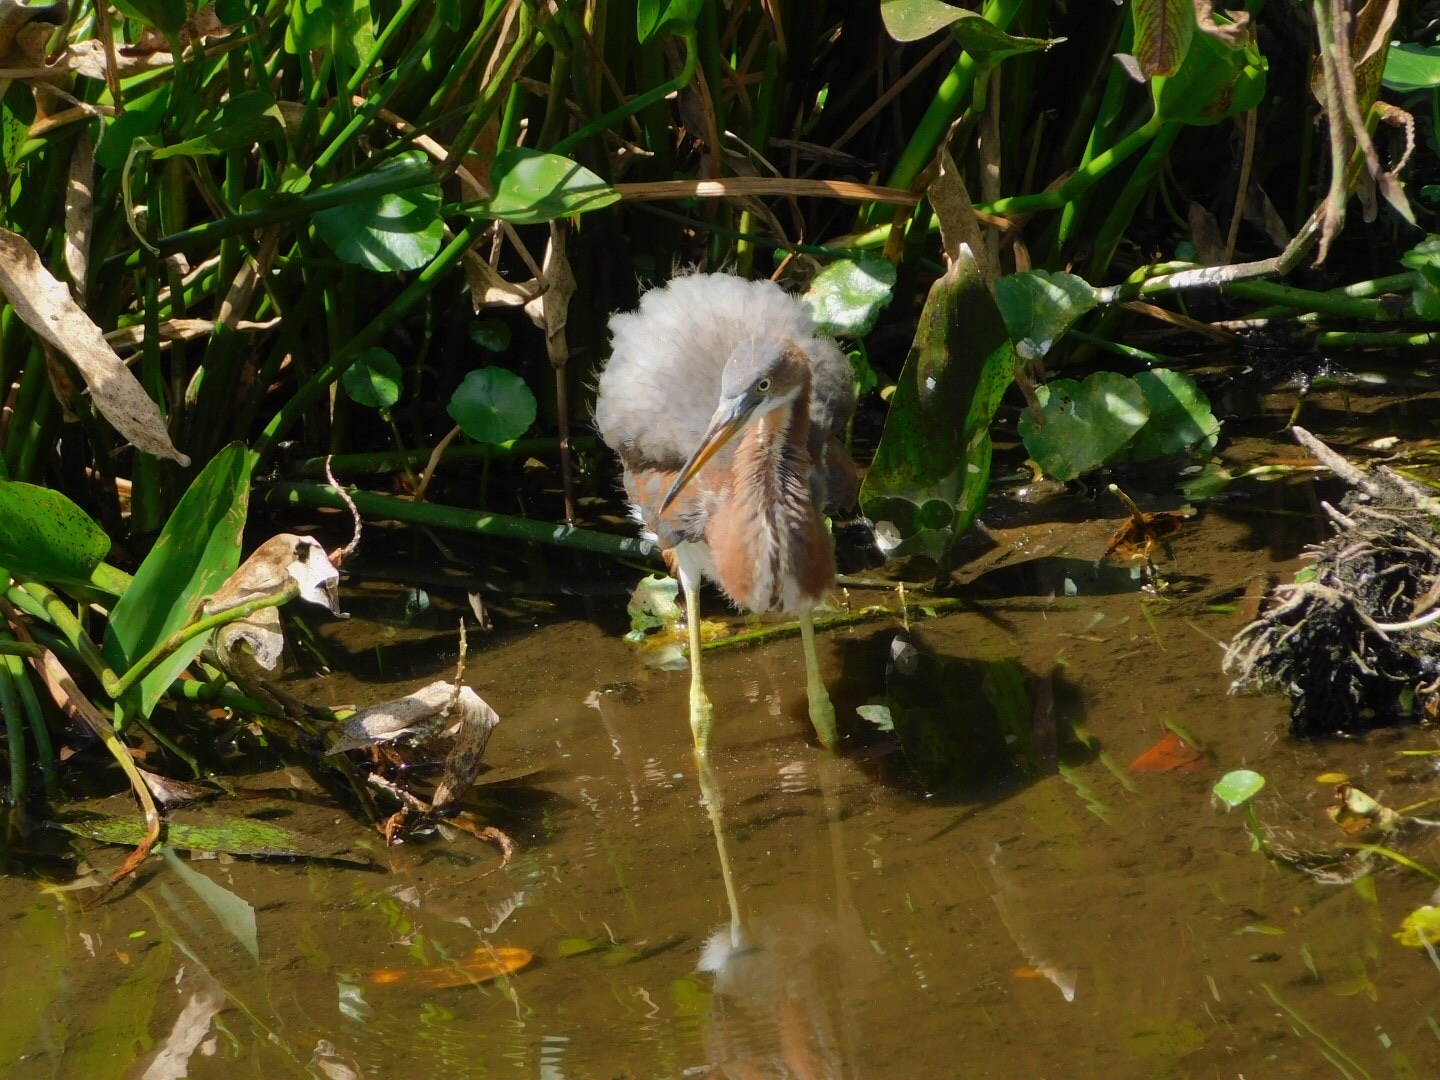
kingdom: Animalia
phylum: Chordata
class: Aves
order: Pelecaniformes
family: Ardeidae
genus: Egretta
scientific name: Egretta tricolor
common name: Tricolored heron
